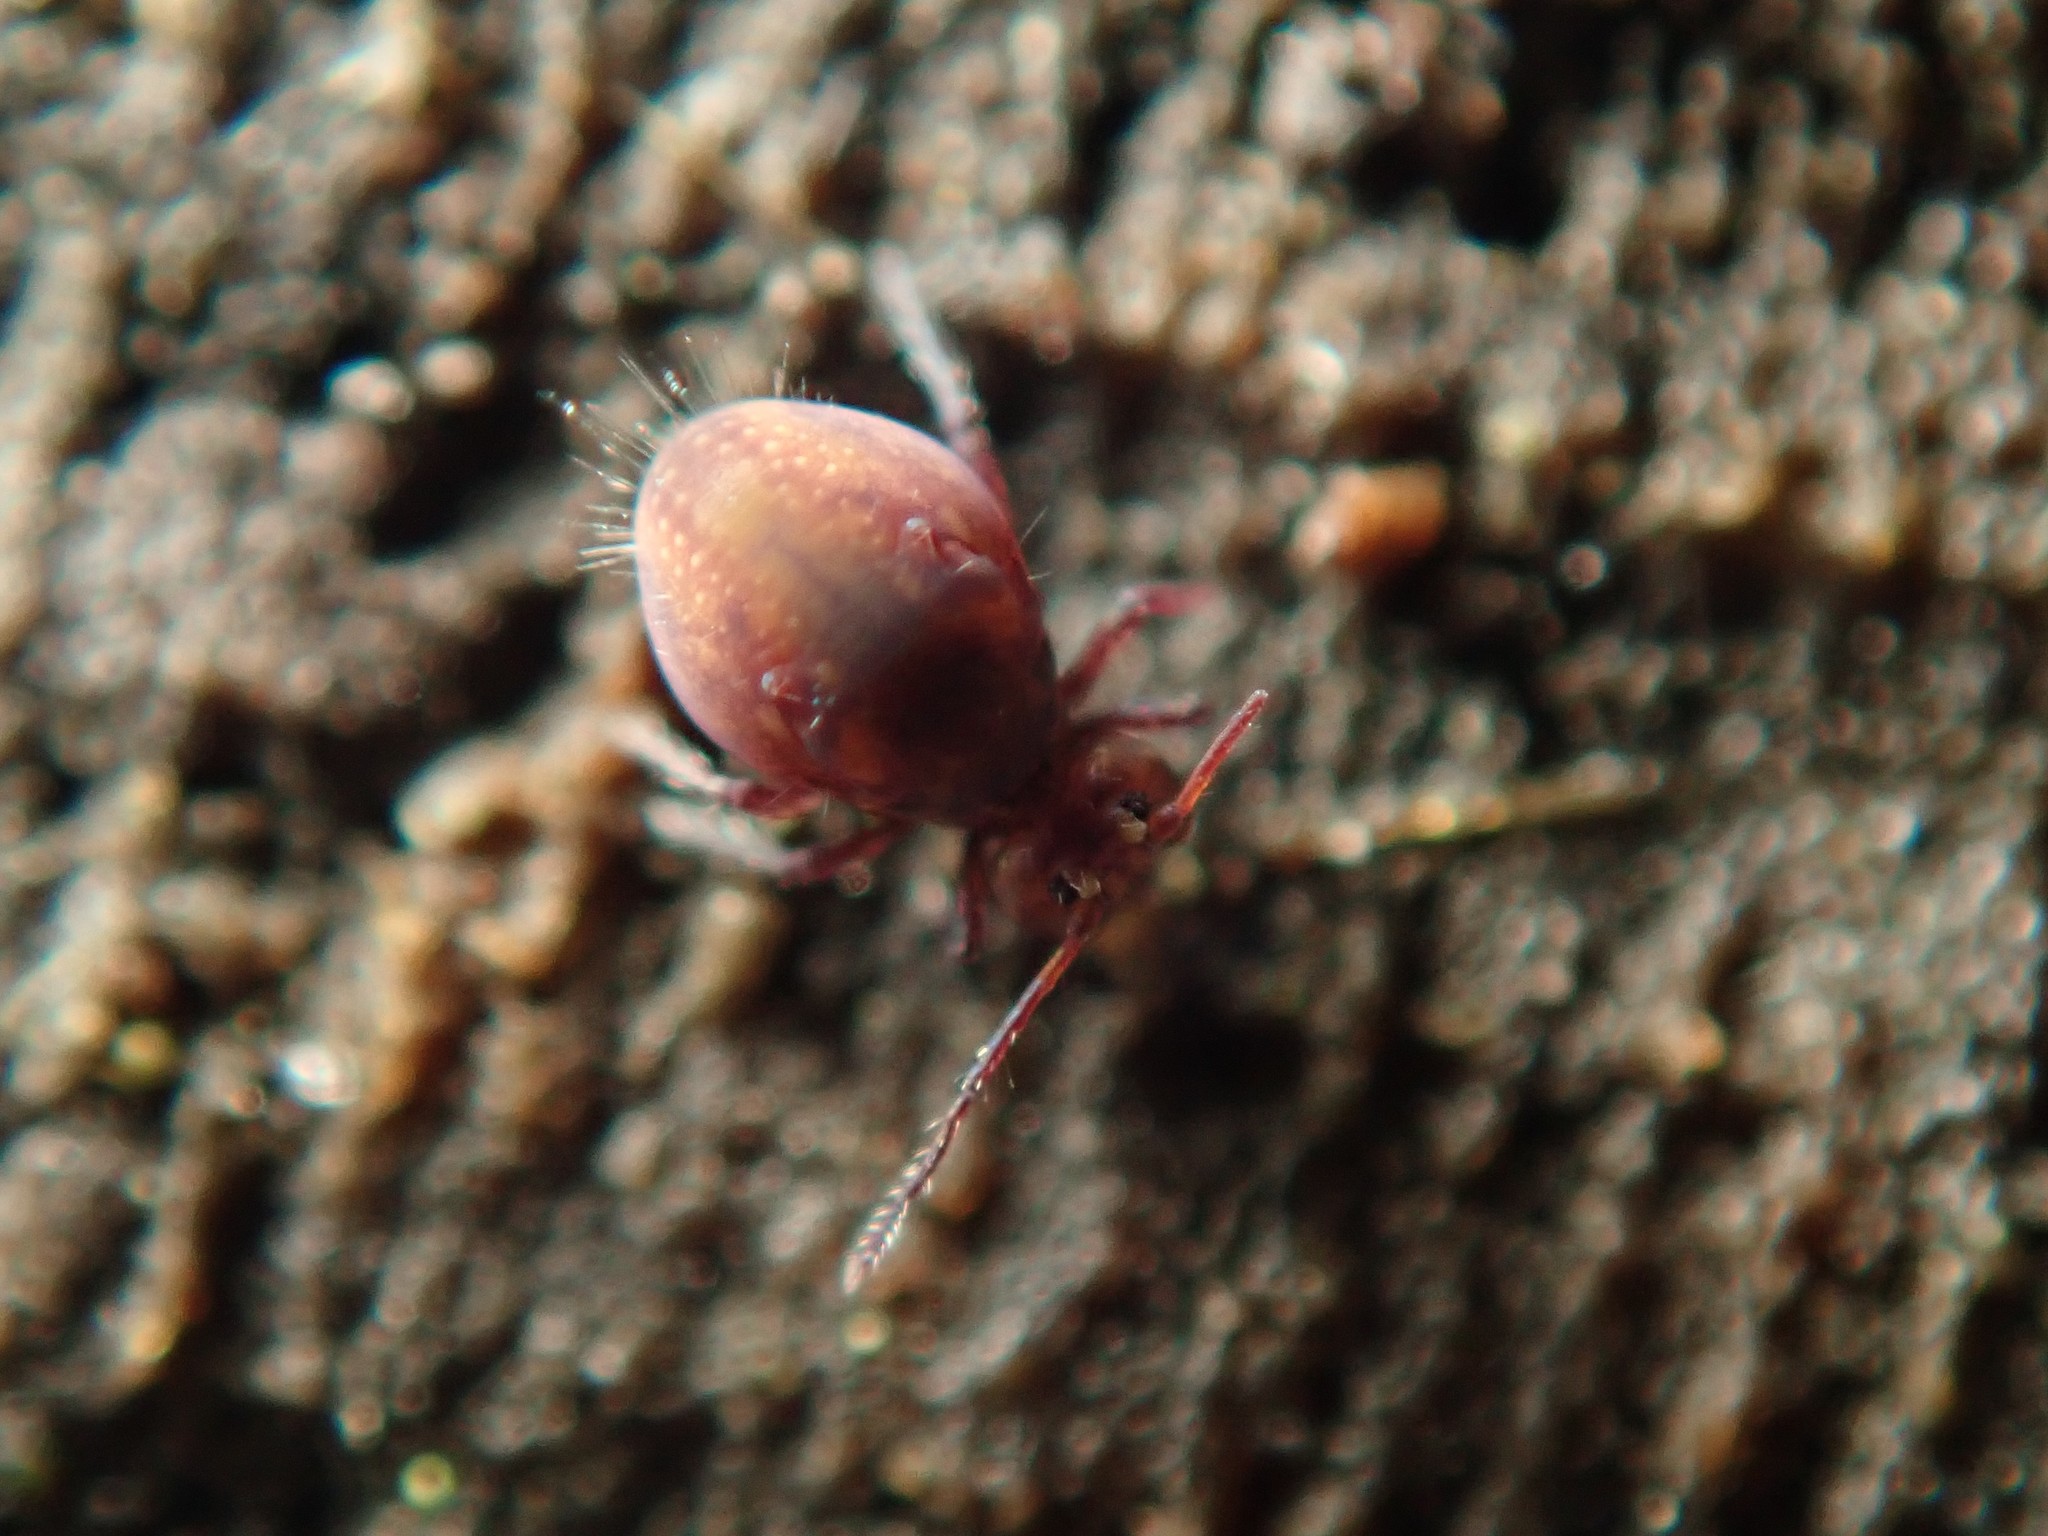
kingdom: Animalia
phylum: Arthropoda
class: Collembola
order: Symphypleona
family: Dicyrtomidae
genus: Dicyrtoma
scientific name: Dicyrtoma fusca
